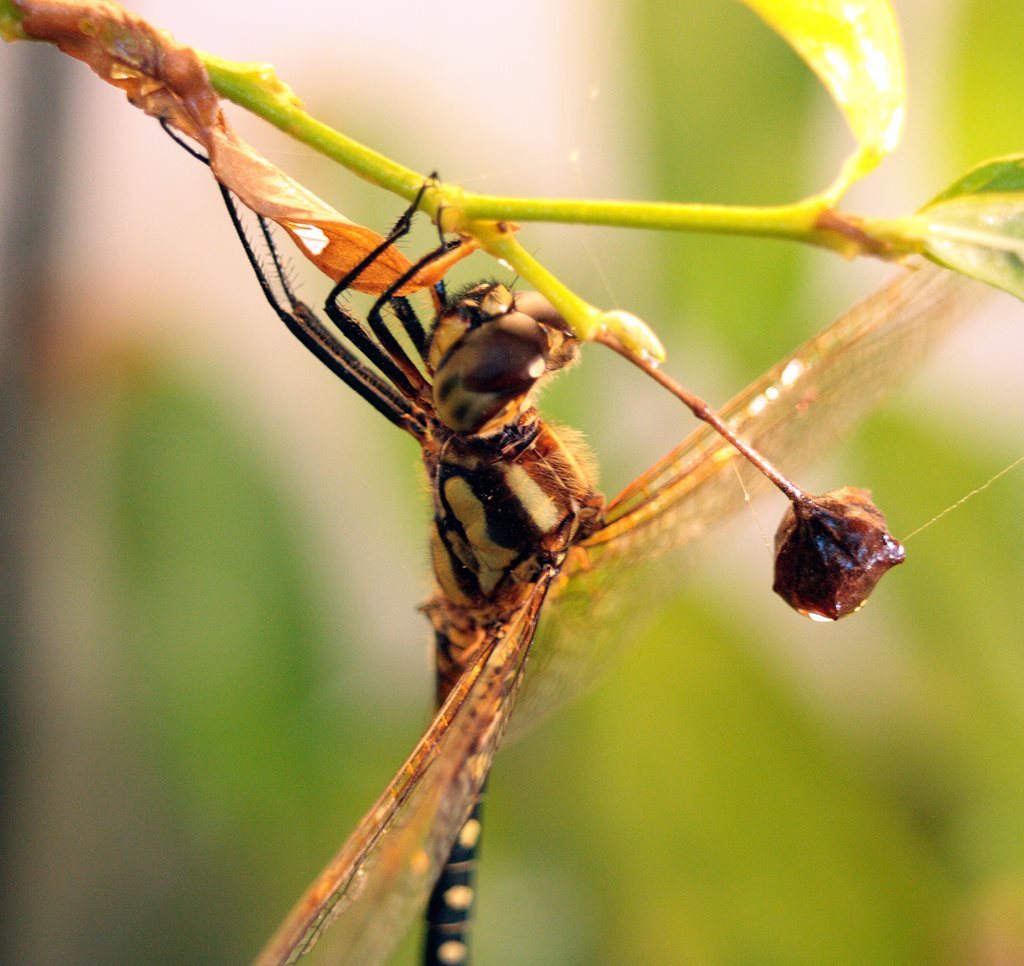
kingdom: Animalia
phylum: Arthropoda
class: Insecta
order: Odonata
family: Libellulidae
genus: Hydrobasileus
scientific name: Hydrobasileus brevistylus
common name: Water prince
